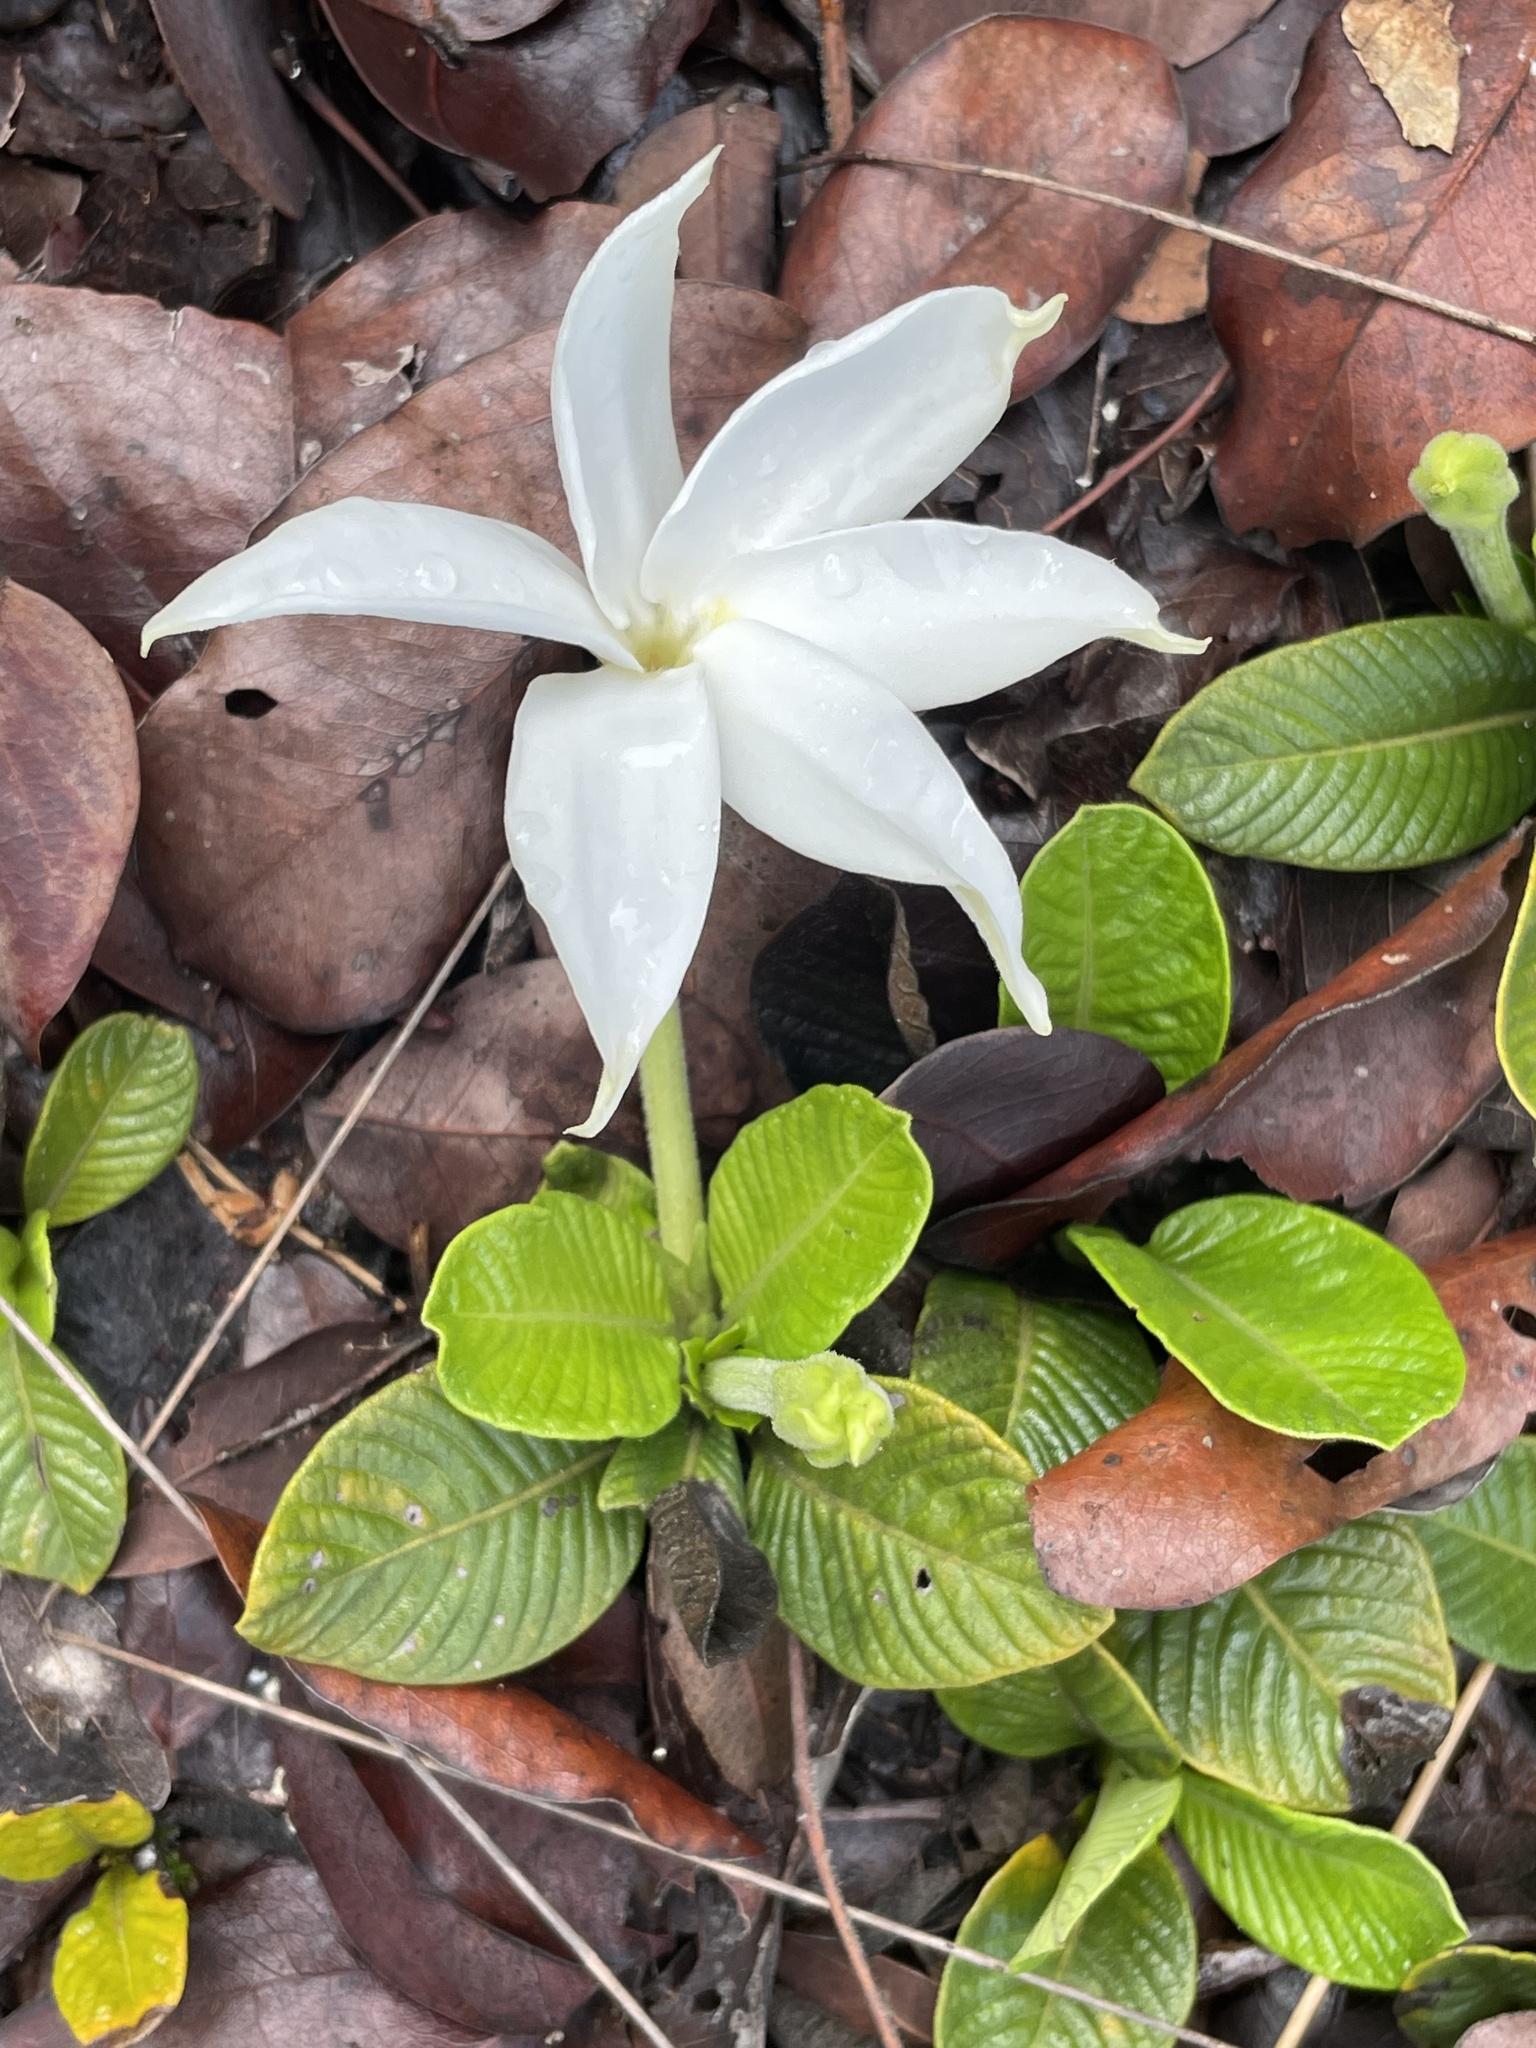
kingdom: Plantae
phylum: Tracheophyta
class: Magnoliopsida
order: Gentianales
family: Rubiaceae
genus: Leptactina
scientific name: Leptactina prostrata
